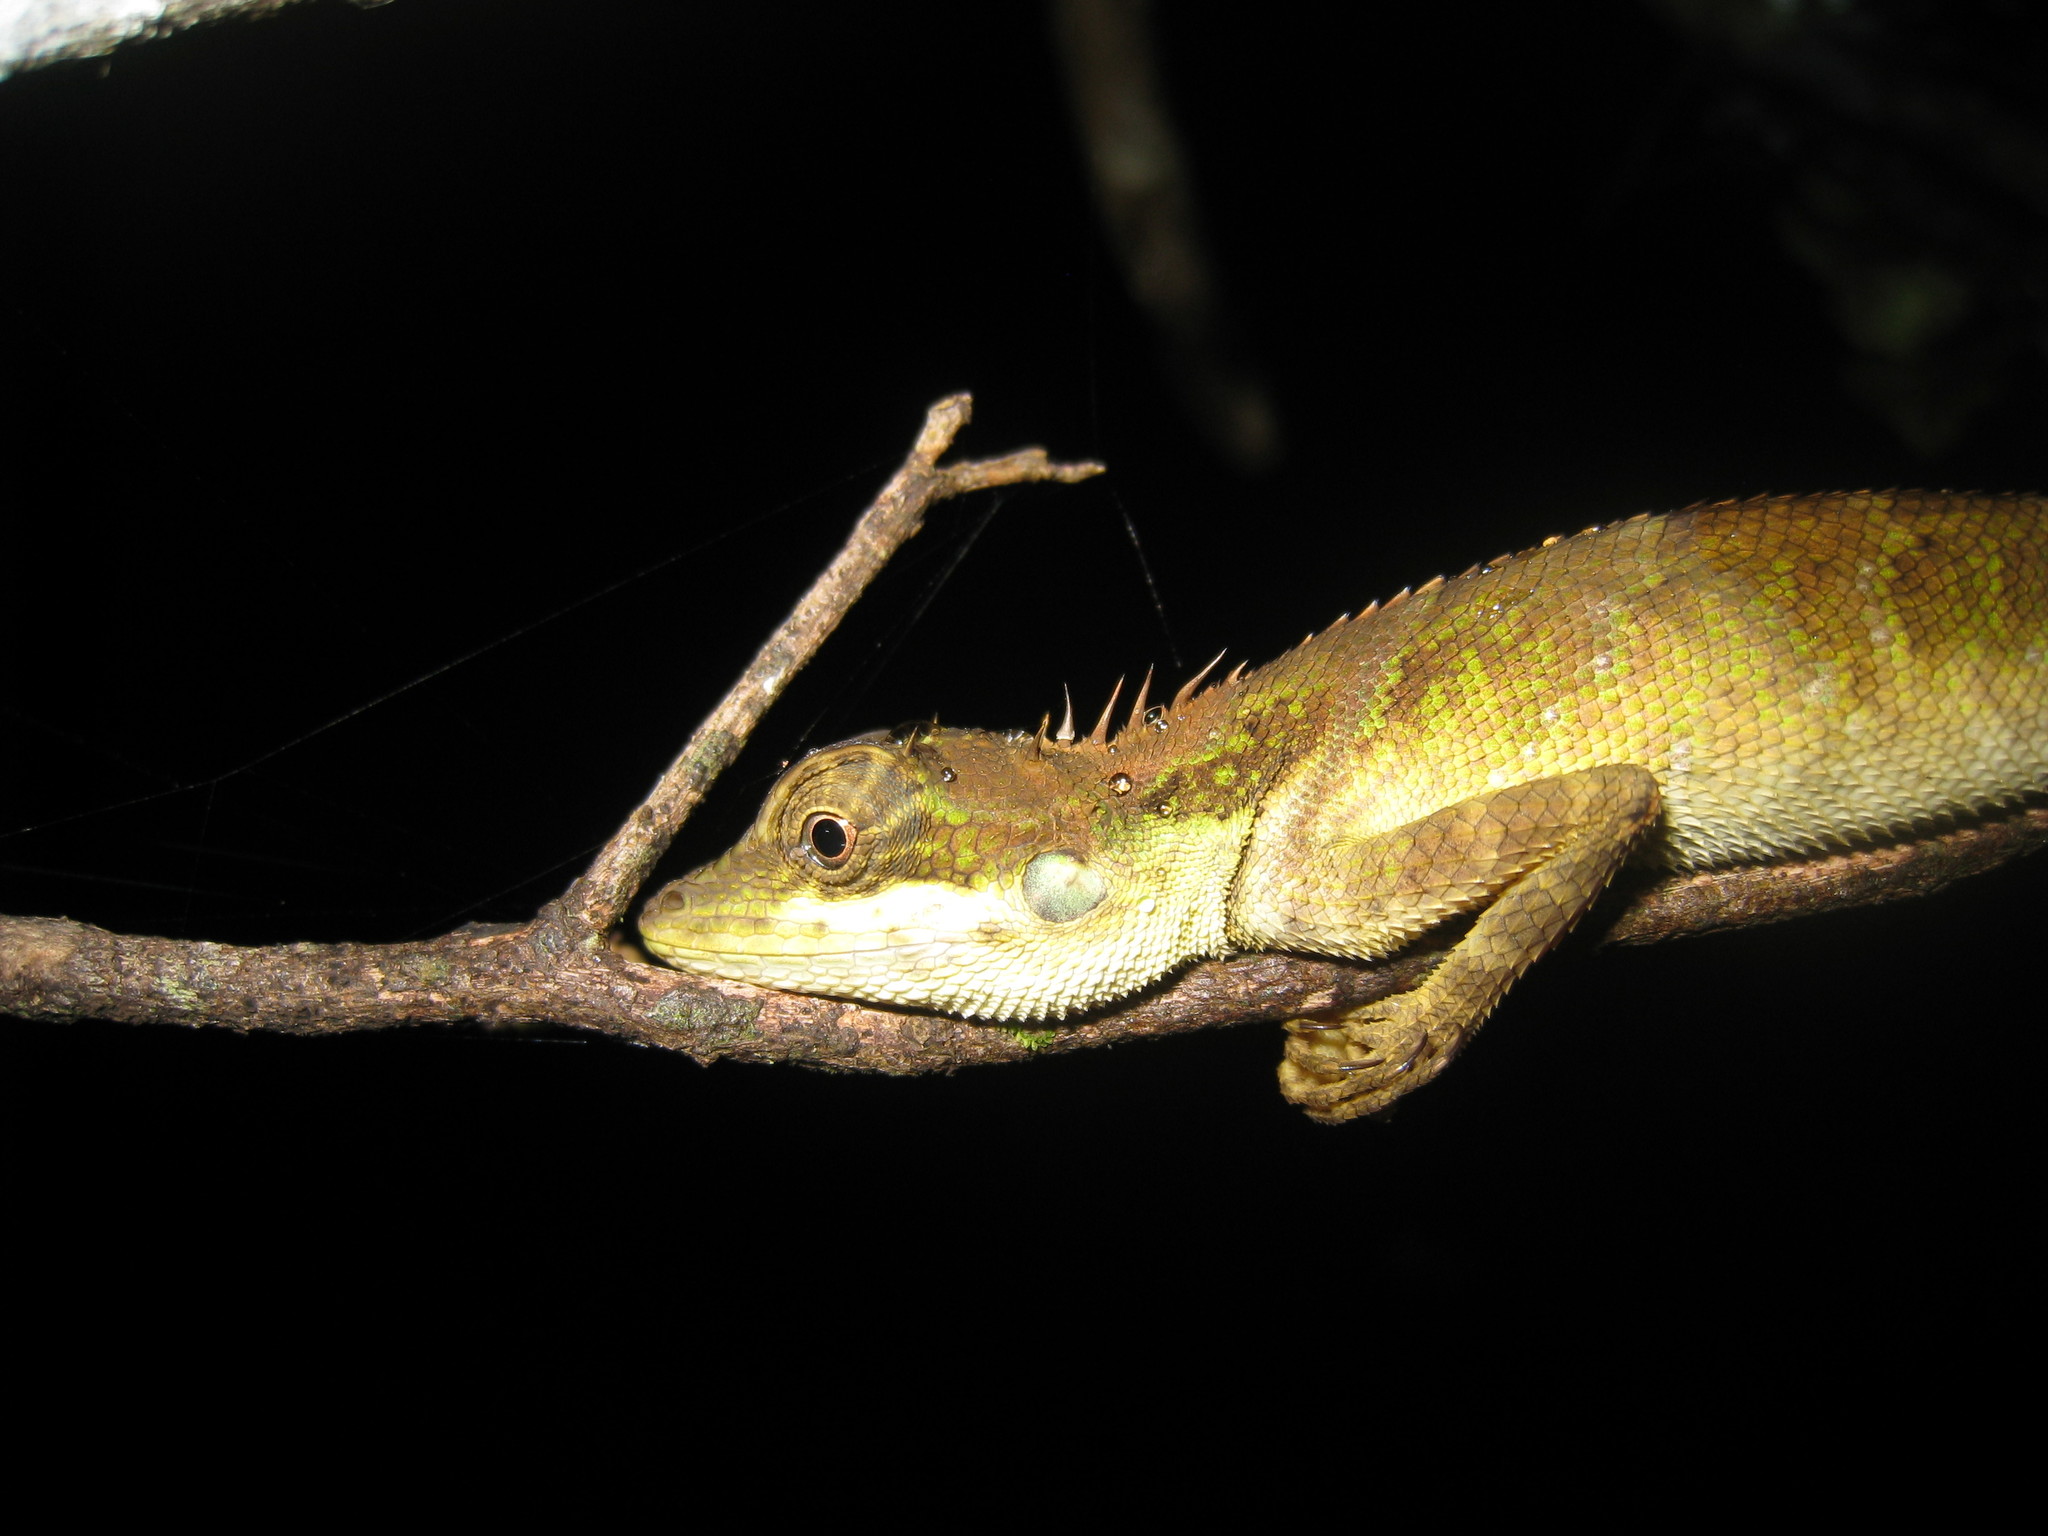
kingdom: Animalia
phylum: Chordata
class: Squamata
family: Agamidae
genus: Monilesaurus
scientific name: Monilesaurus ellioti
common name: Elliot's forest lizard
